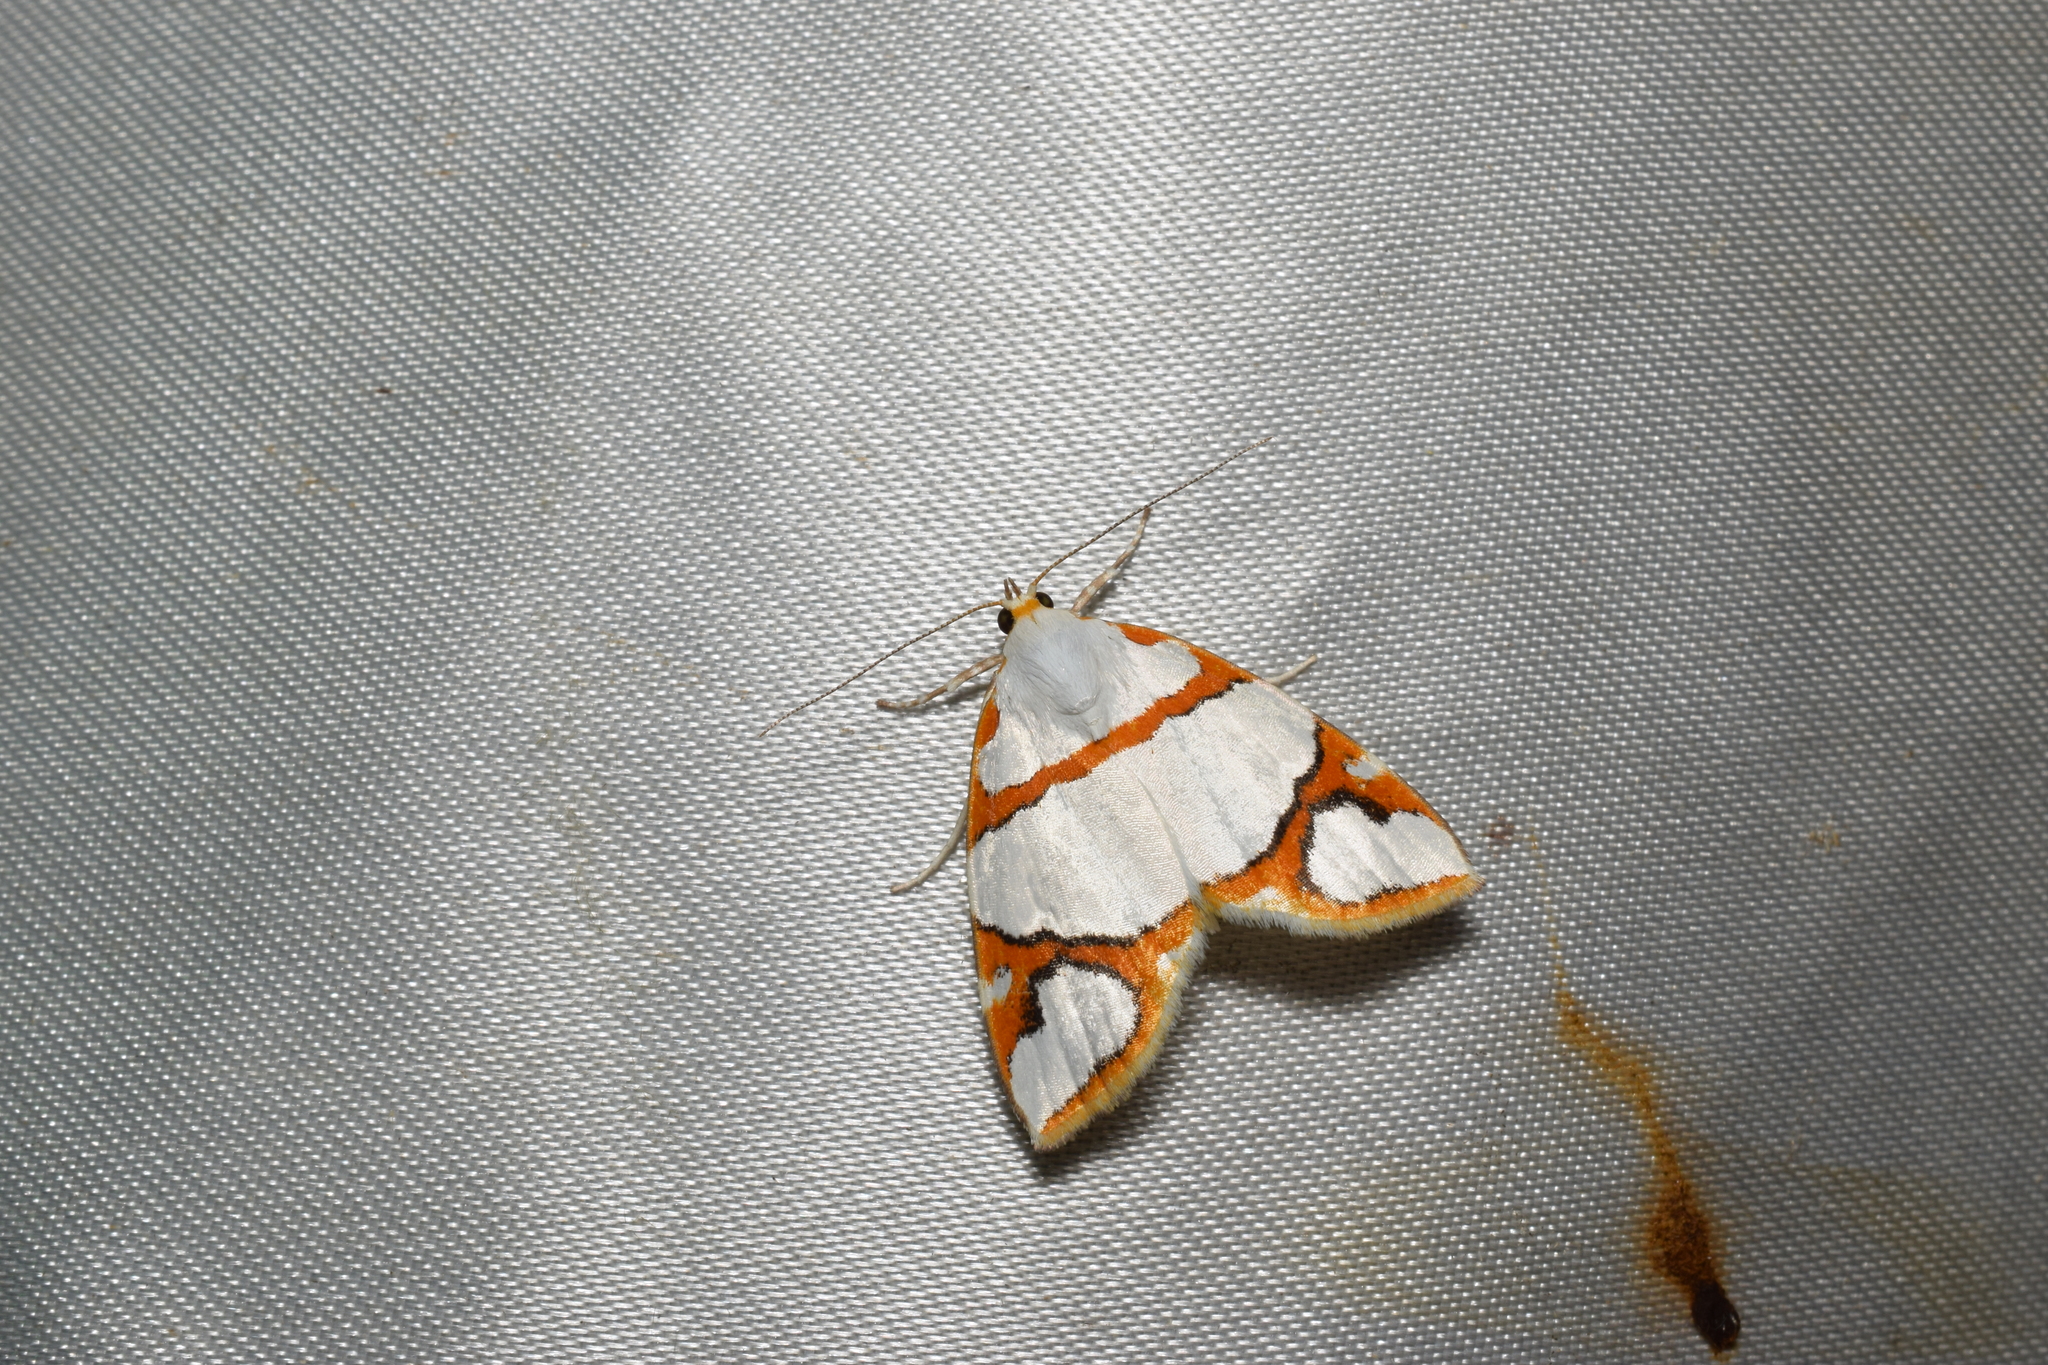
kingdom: Animalia
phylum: Arthropoda
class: Insecta
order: Lepidoptera
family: Nolidae
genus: Ariolica
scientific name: Ariolica argentea
